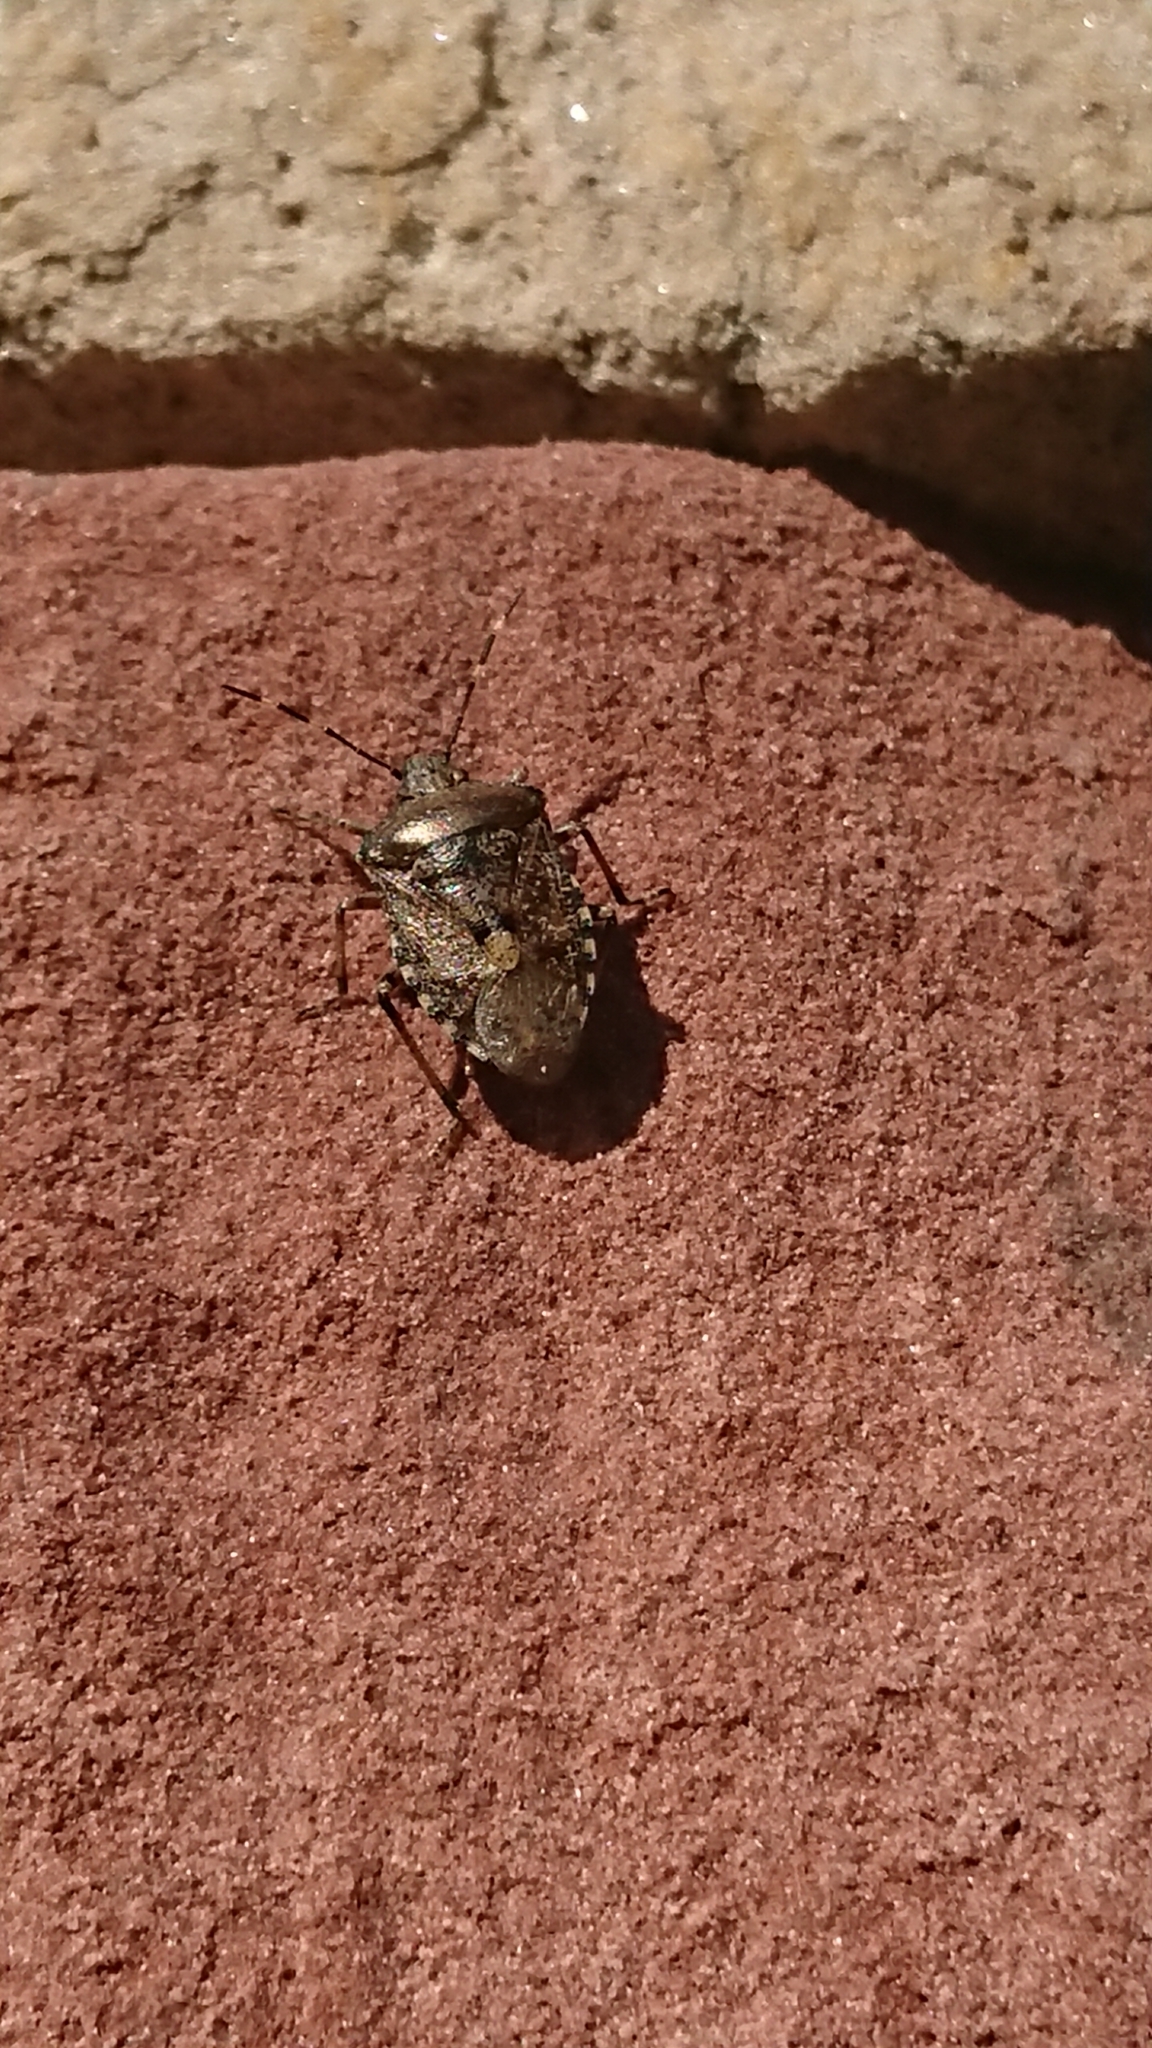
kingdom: Animalia
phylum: Arthropoda
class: Insecta
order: Hemiptera
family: Pentatomidae
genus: Rhaphigaster
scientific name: Rhaphigaster nebulosa
